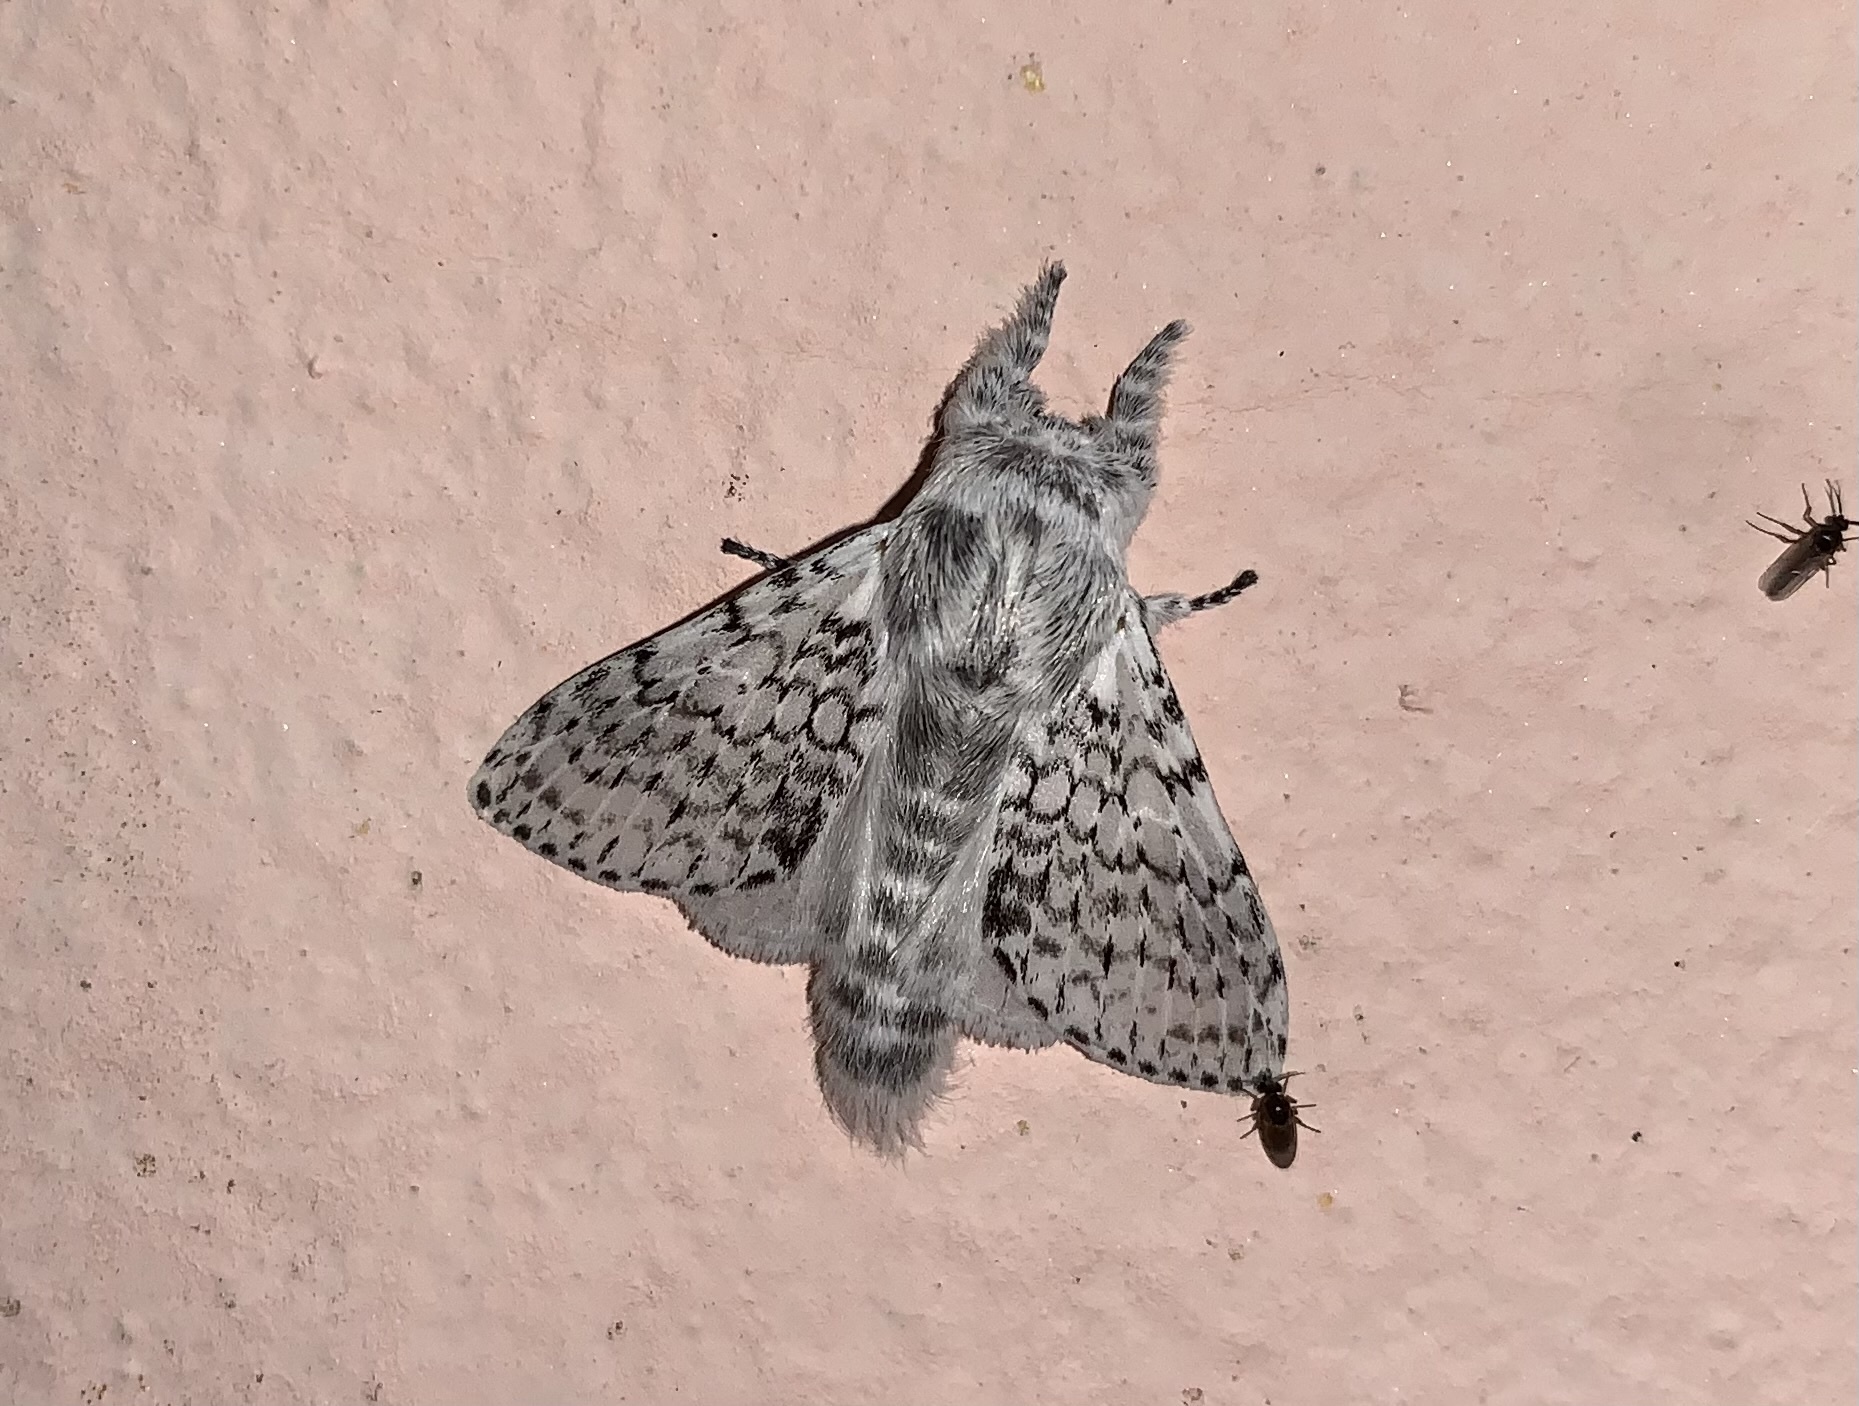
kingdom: Animalia
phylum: Arthropoda
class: Insecta
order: Lepidoptera
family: Lasiocampidae
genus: Artace
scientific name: Artace anula
